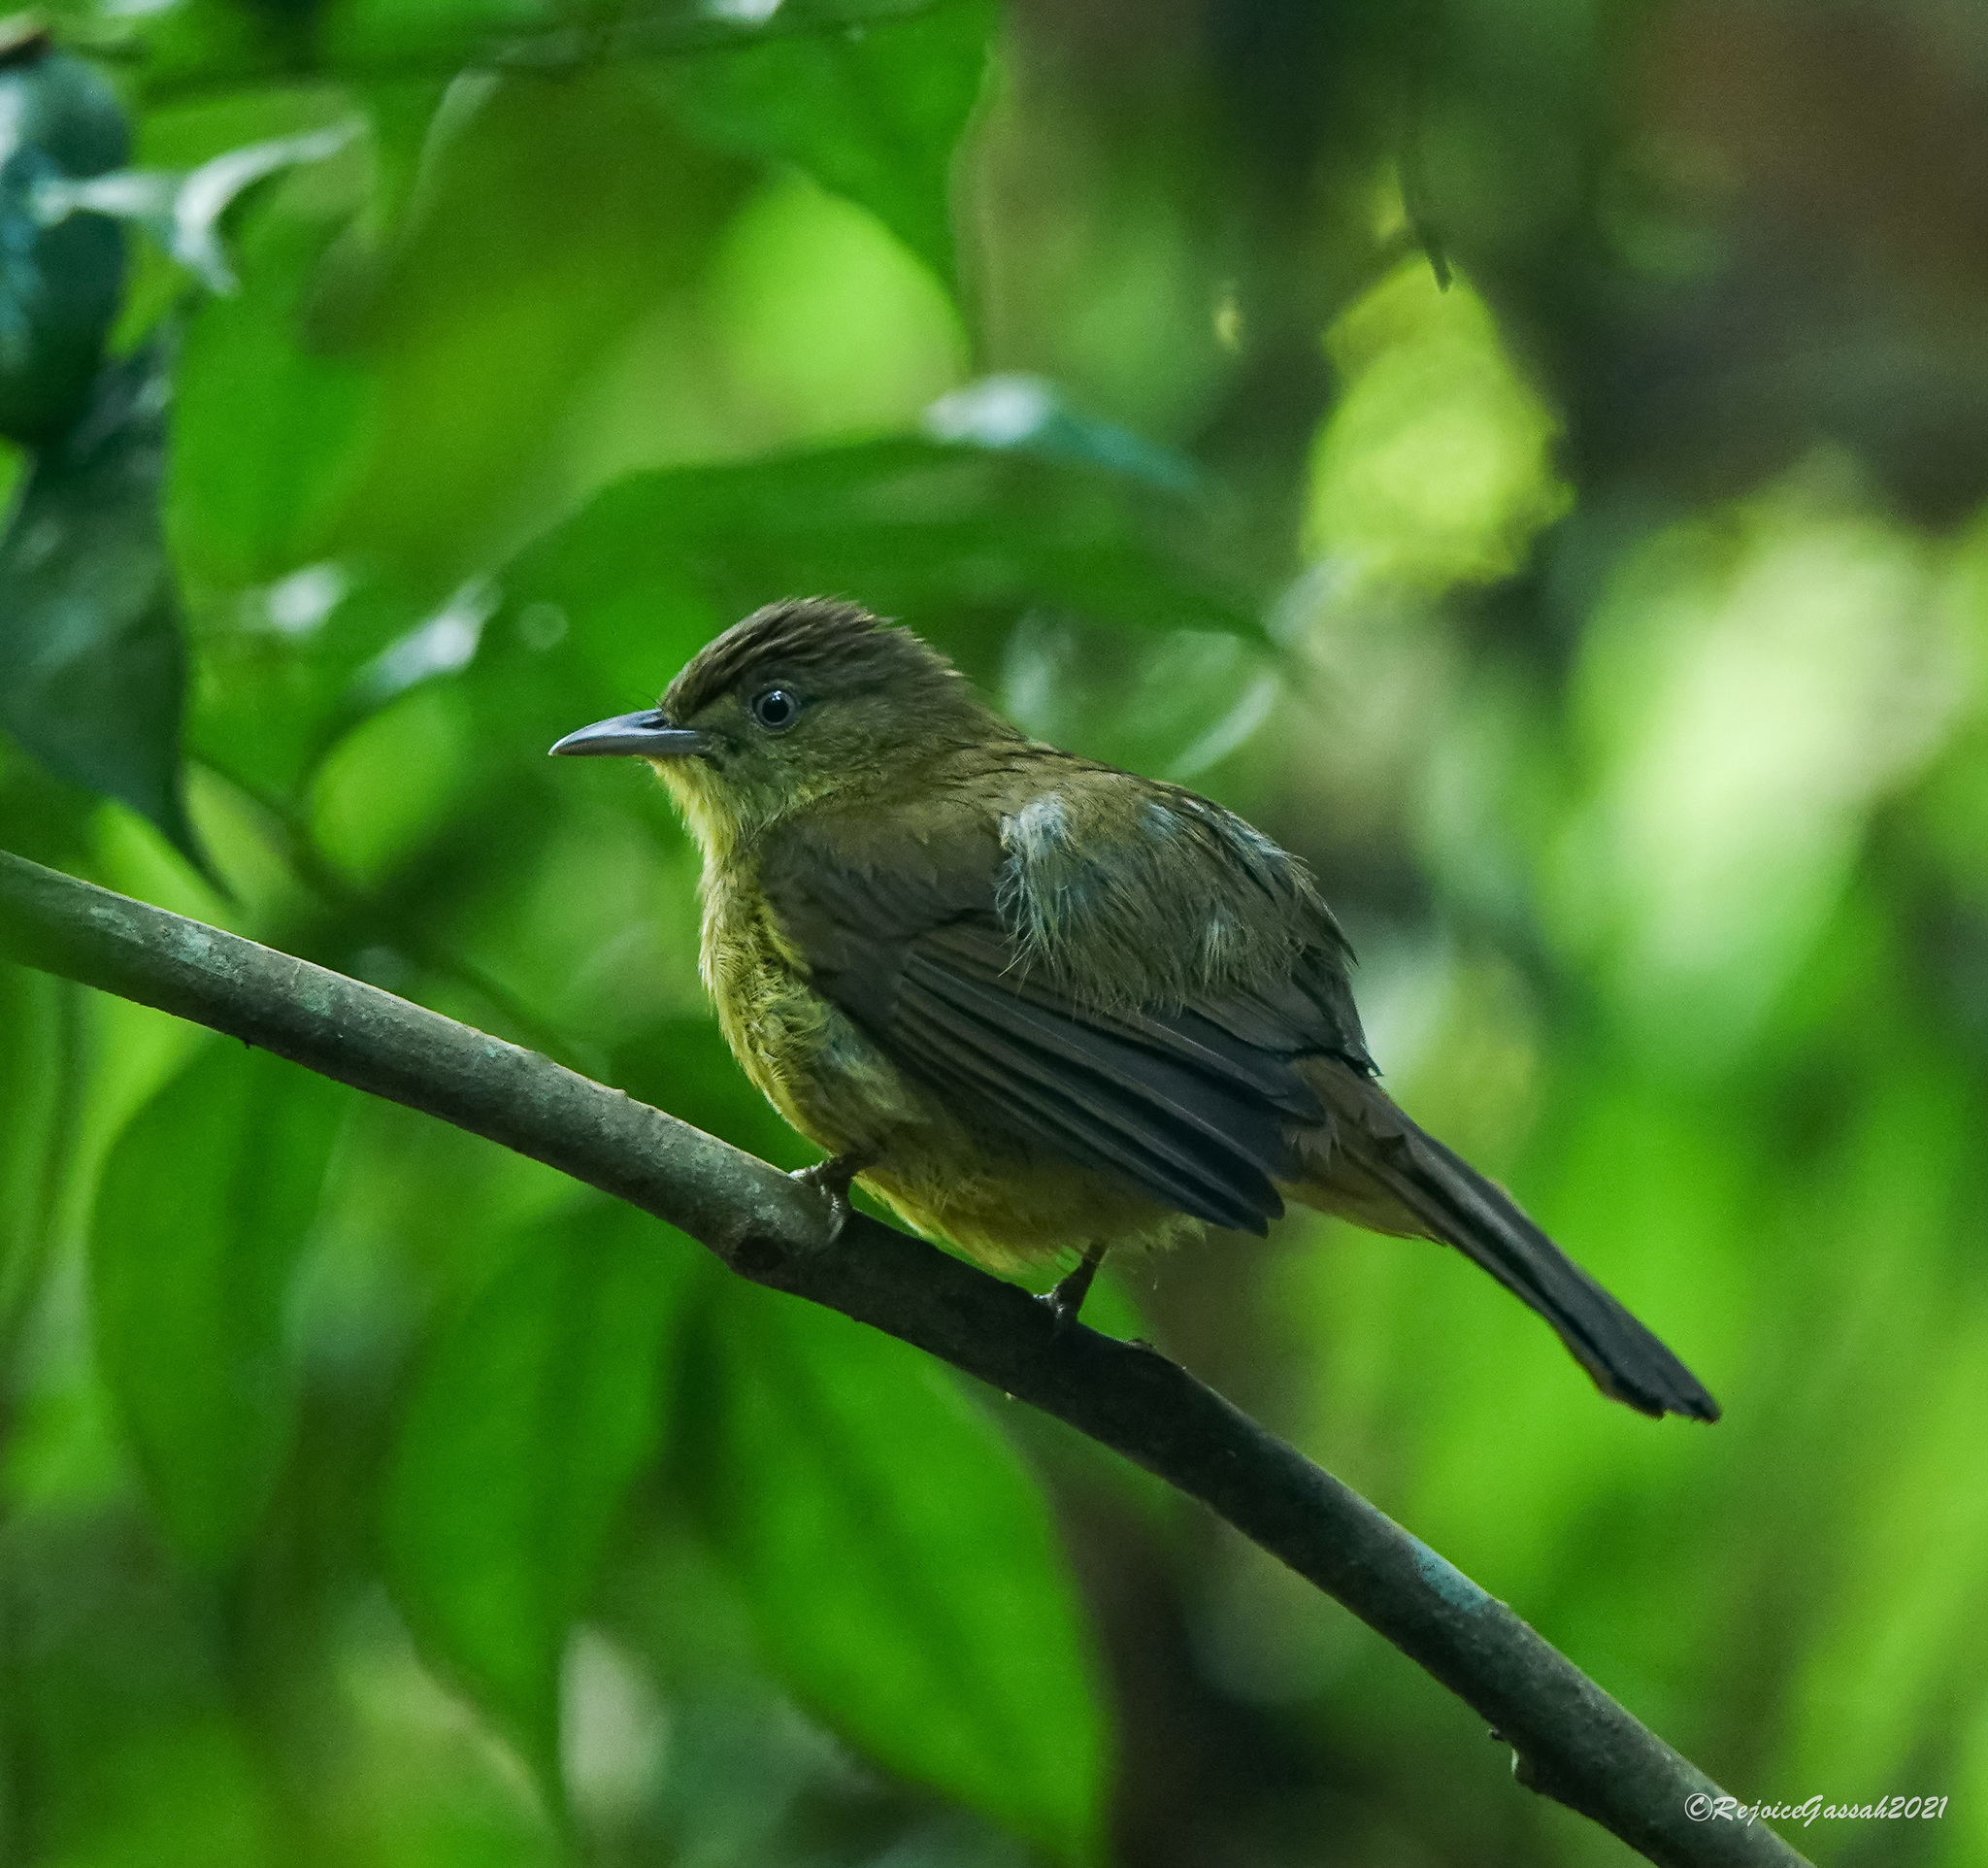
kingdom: Animalia
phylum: Chordata
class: Aves
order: Passeriformes
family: Pycnonotidae
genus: Iole
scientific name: Iole virescens
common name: Olive bulbul
